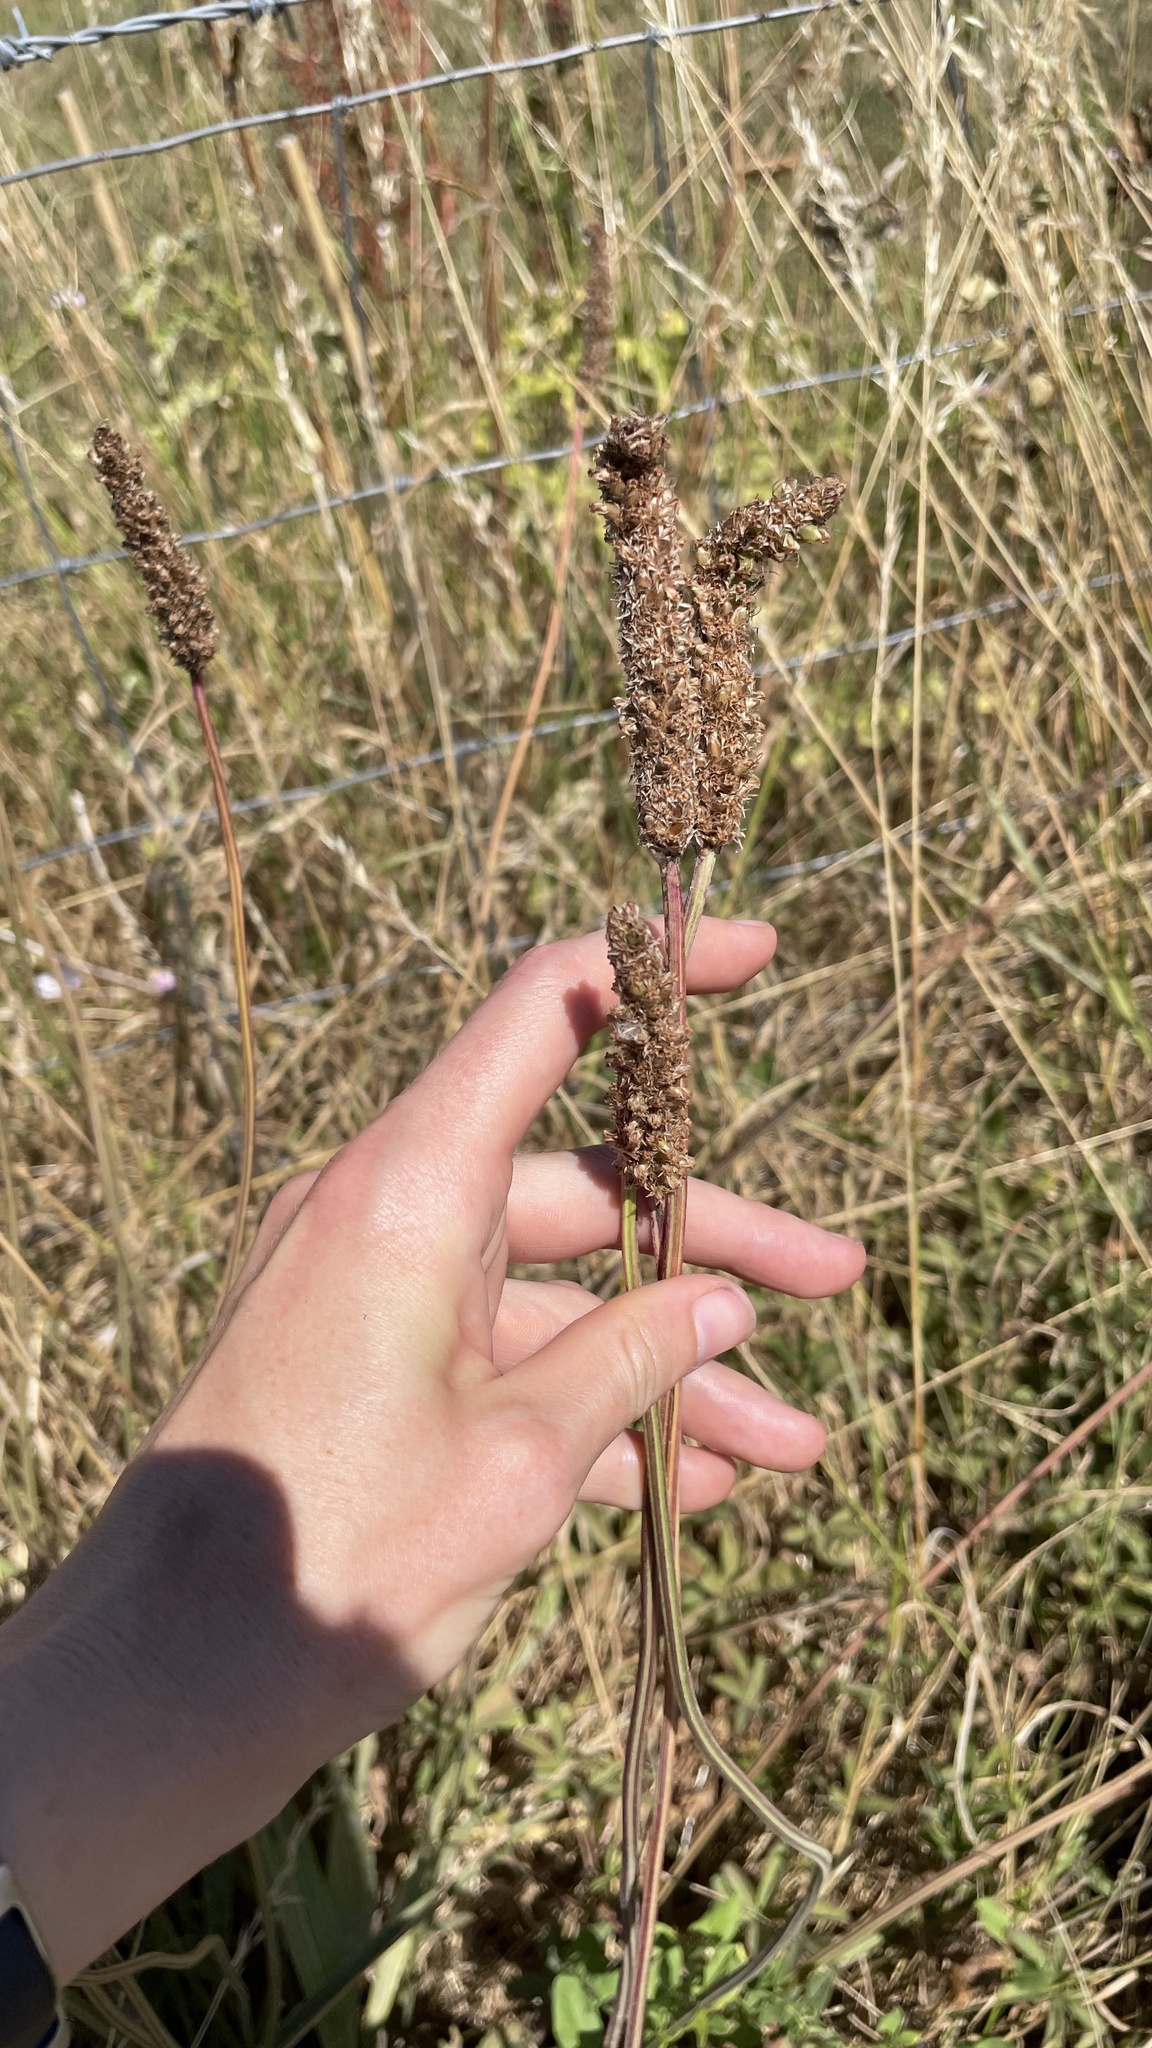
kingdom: Plantae
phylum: Tracheophyta
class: Magnoliopsida
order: Lamiales
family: Plantaginaceae
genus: Plantago
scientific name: Plantago lanceolata
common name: Ribwort plantain
